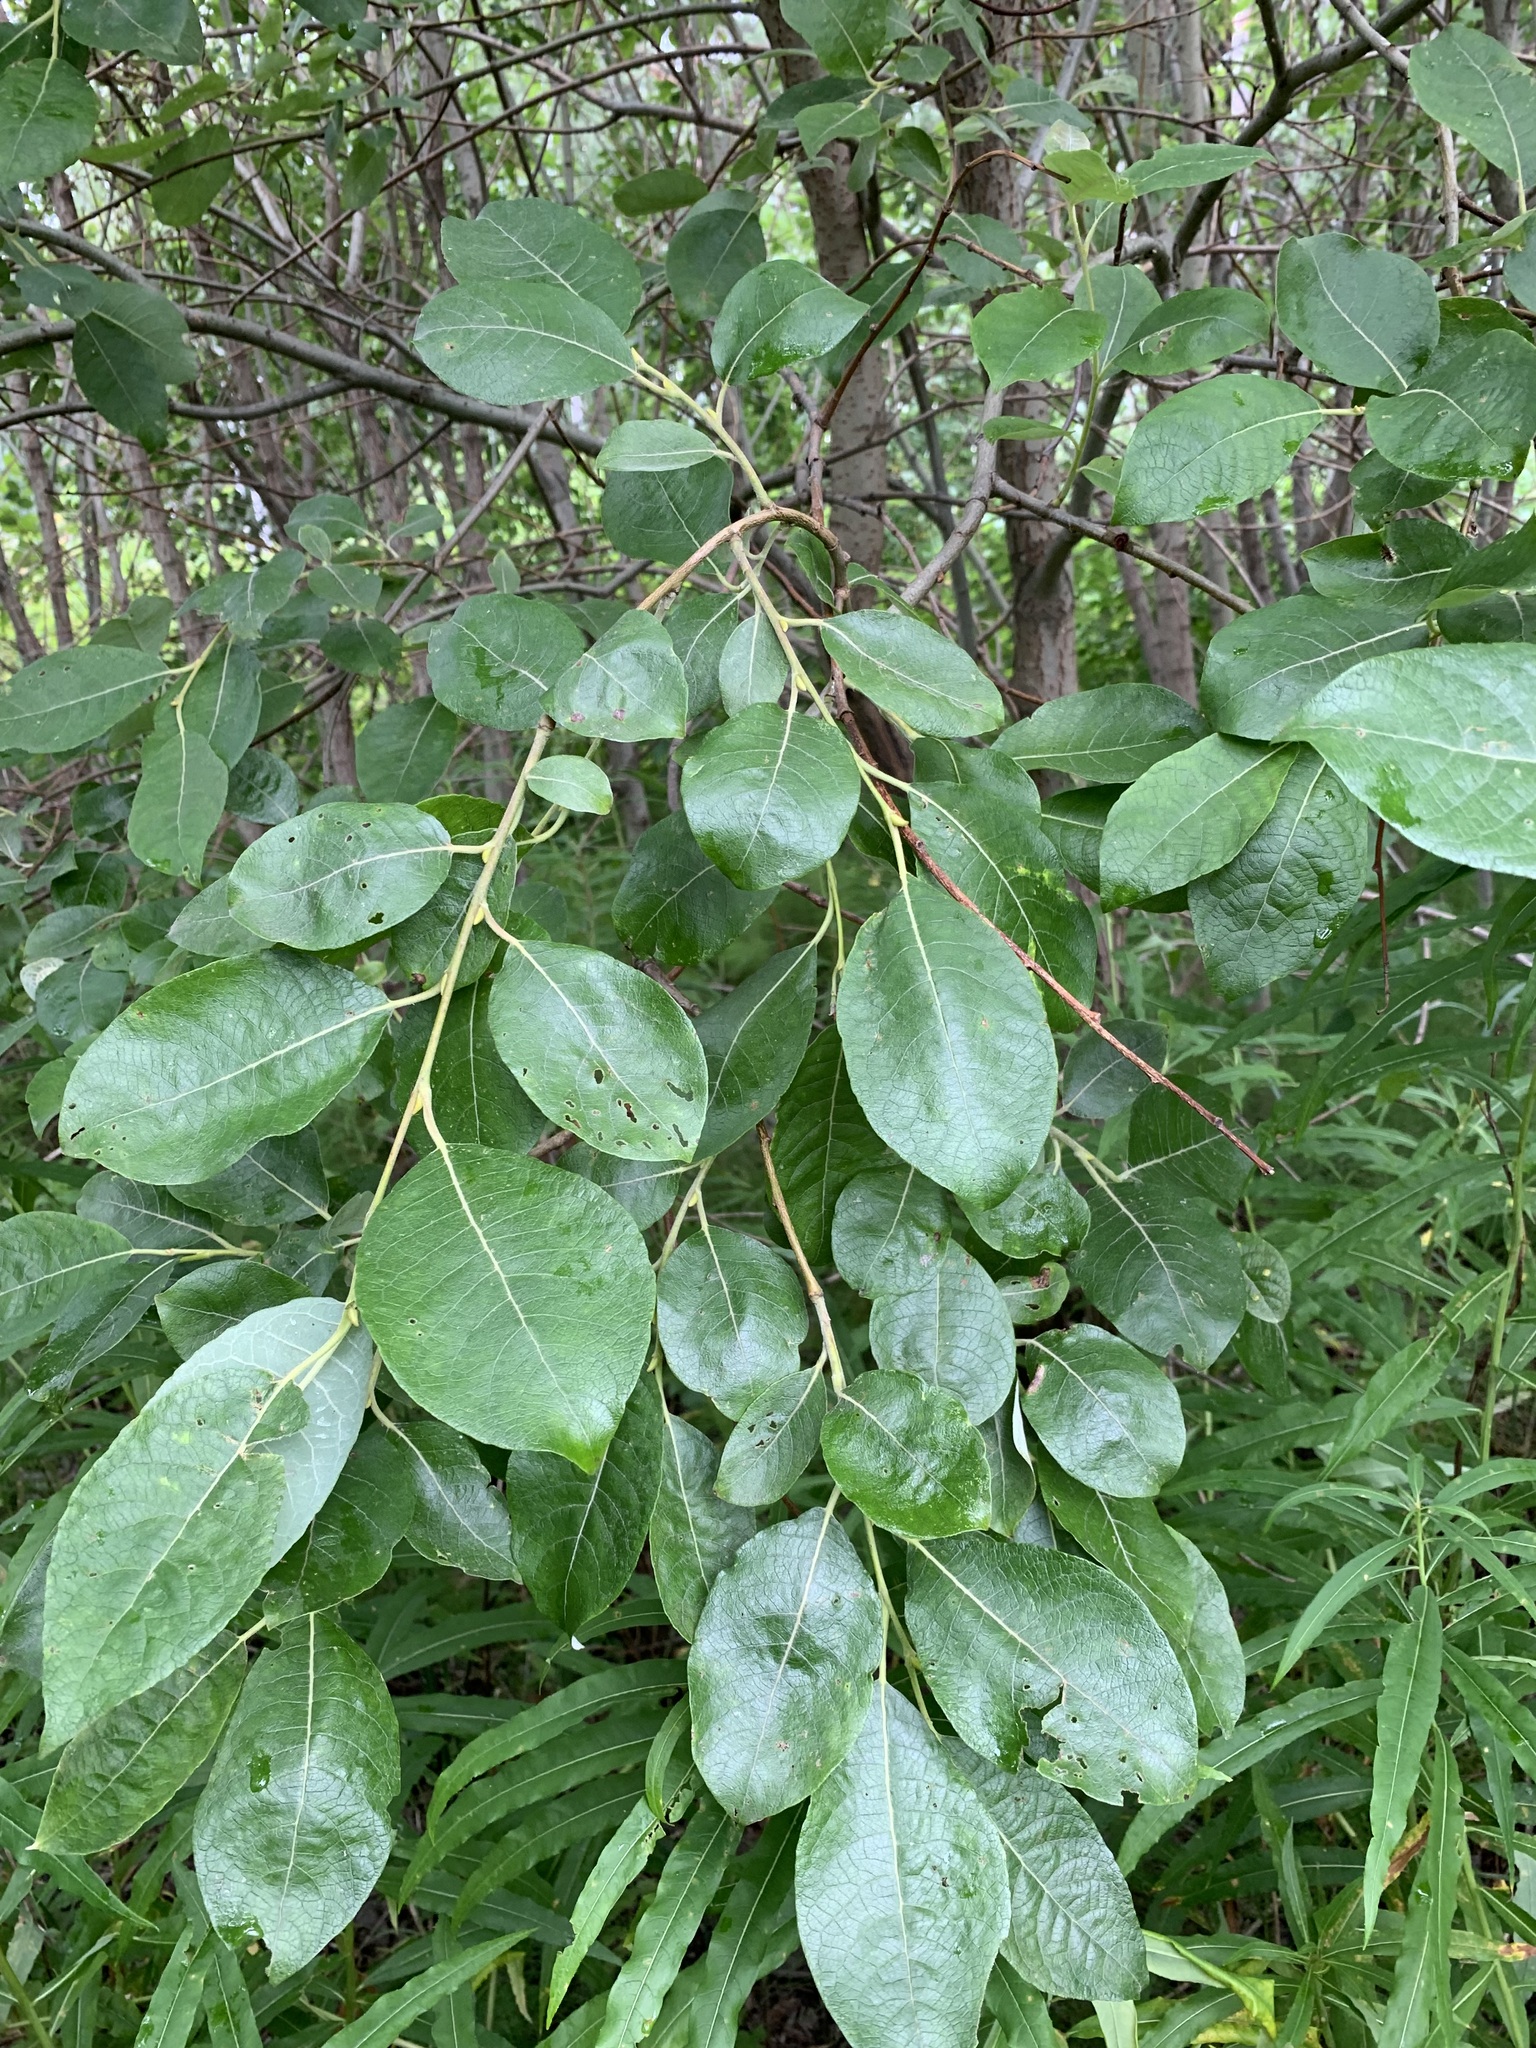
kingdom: Plantae
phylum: Tracheophyta
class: Magnoliopsida
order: Malpighiales
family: Salicaceae
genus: Salix
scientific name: Salix caprea
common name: Goat willow
